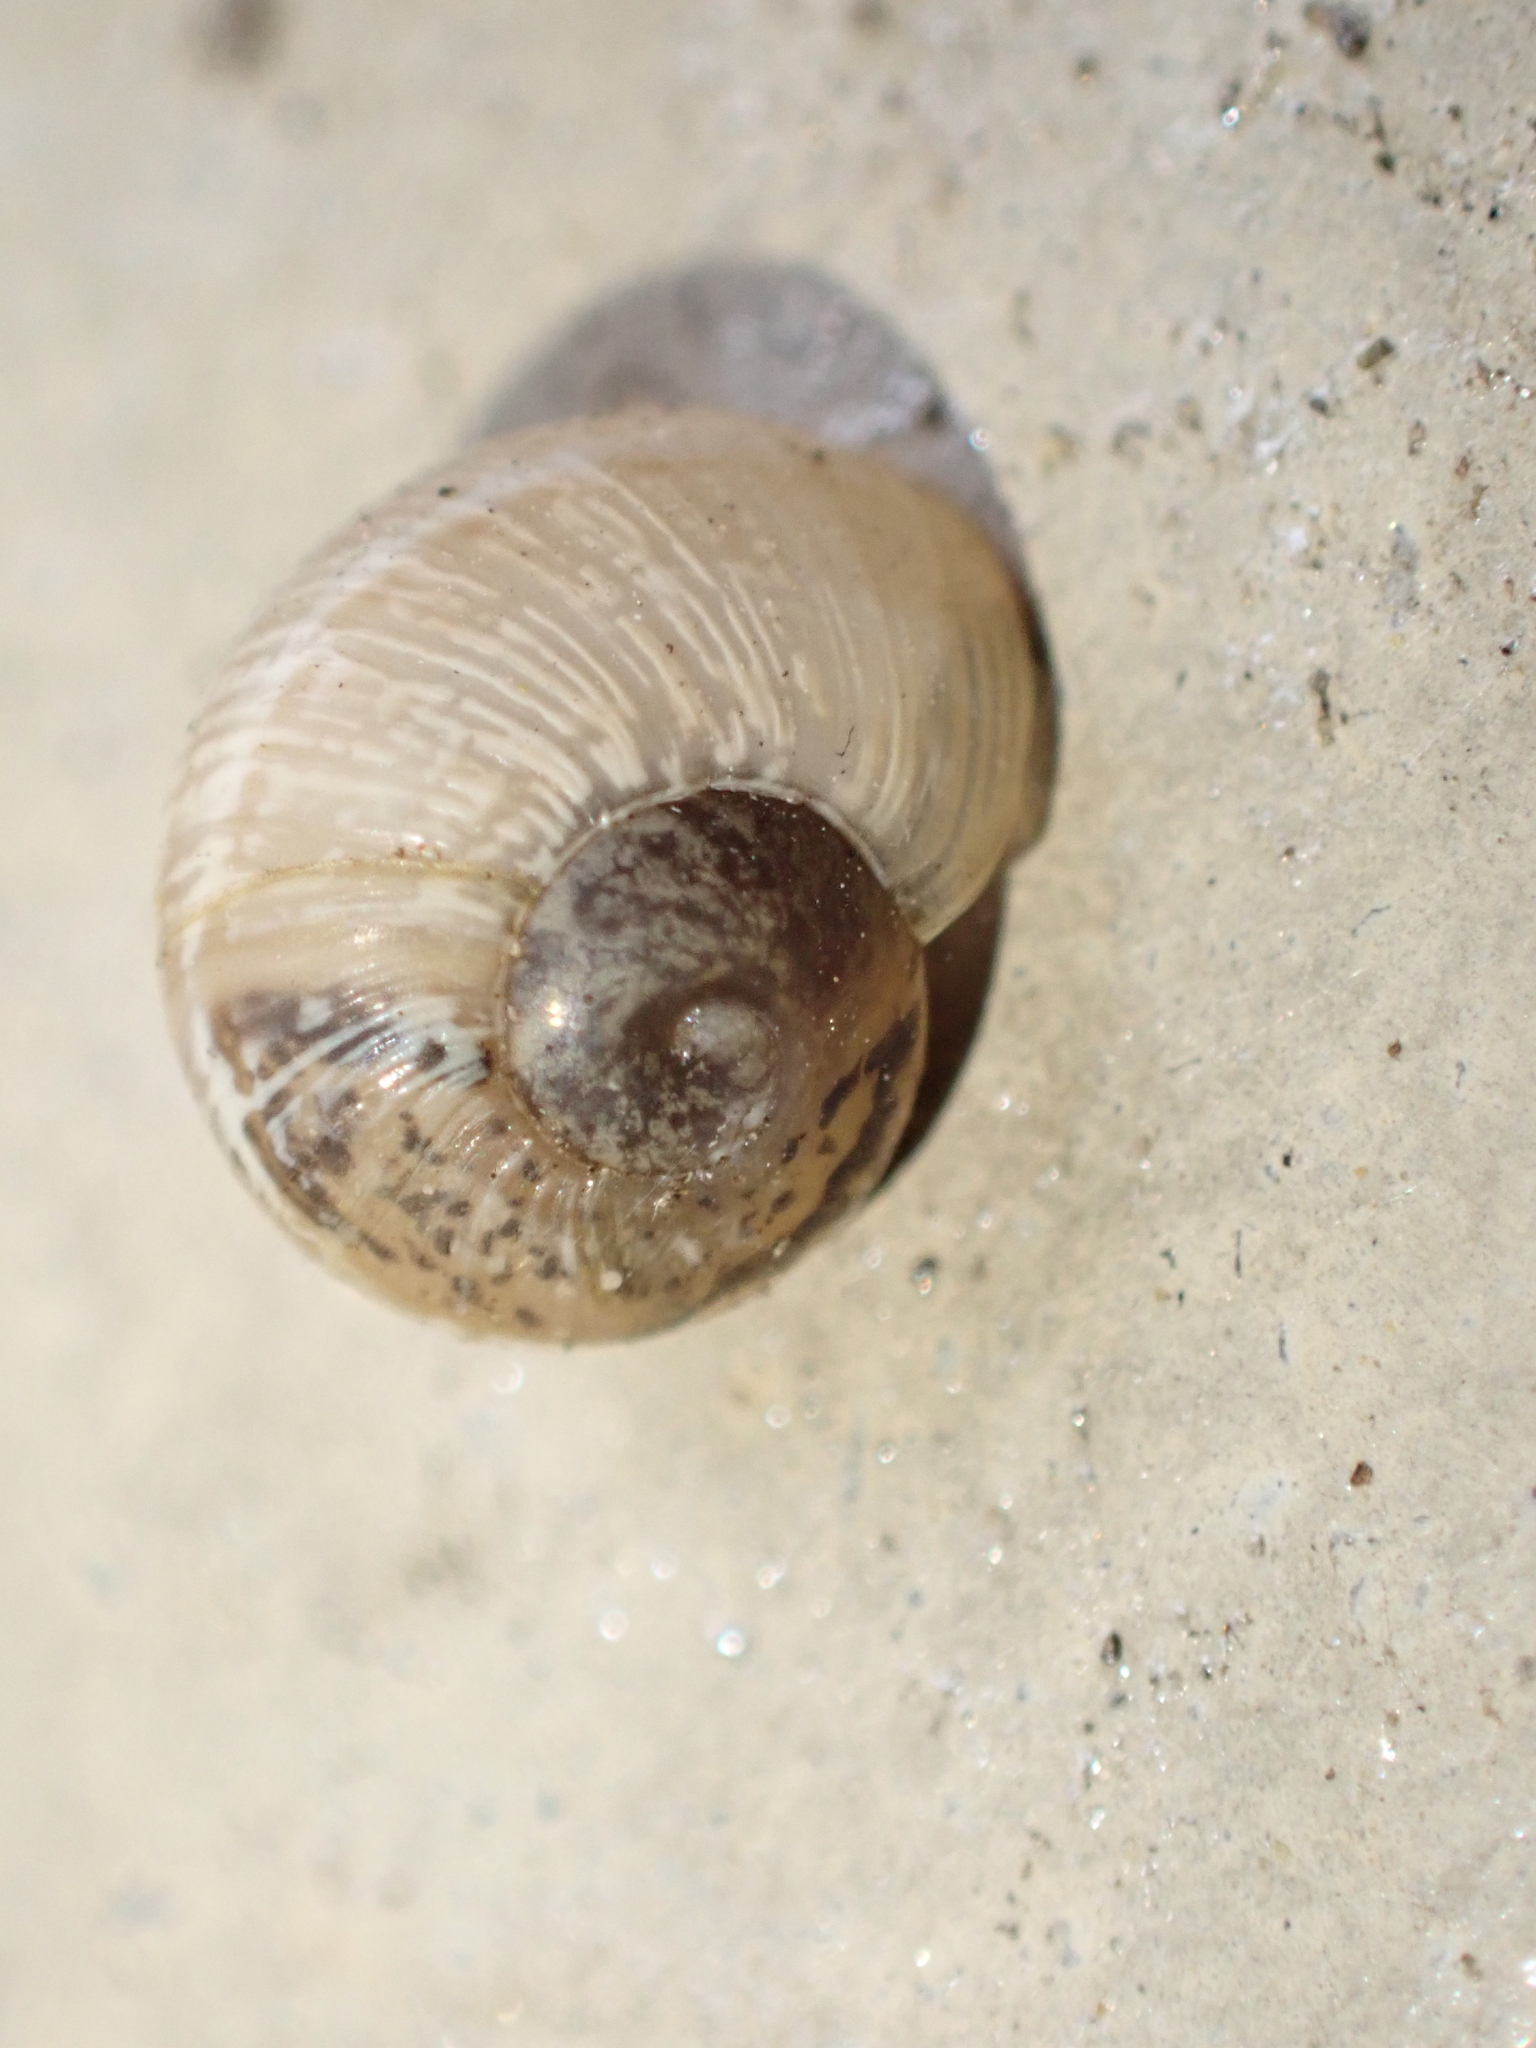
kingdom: Animalia
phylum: Mollusca
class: Gastropoda
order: Stylommatophora
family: Helicidae
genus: Cornu
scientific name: Cornu aspersum
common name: Brown garden snail
